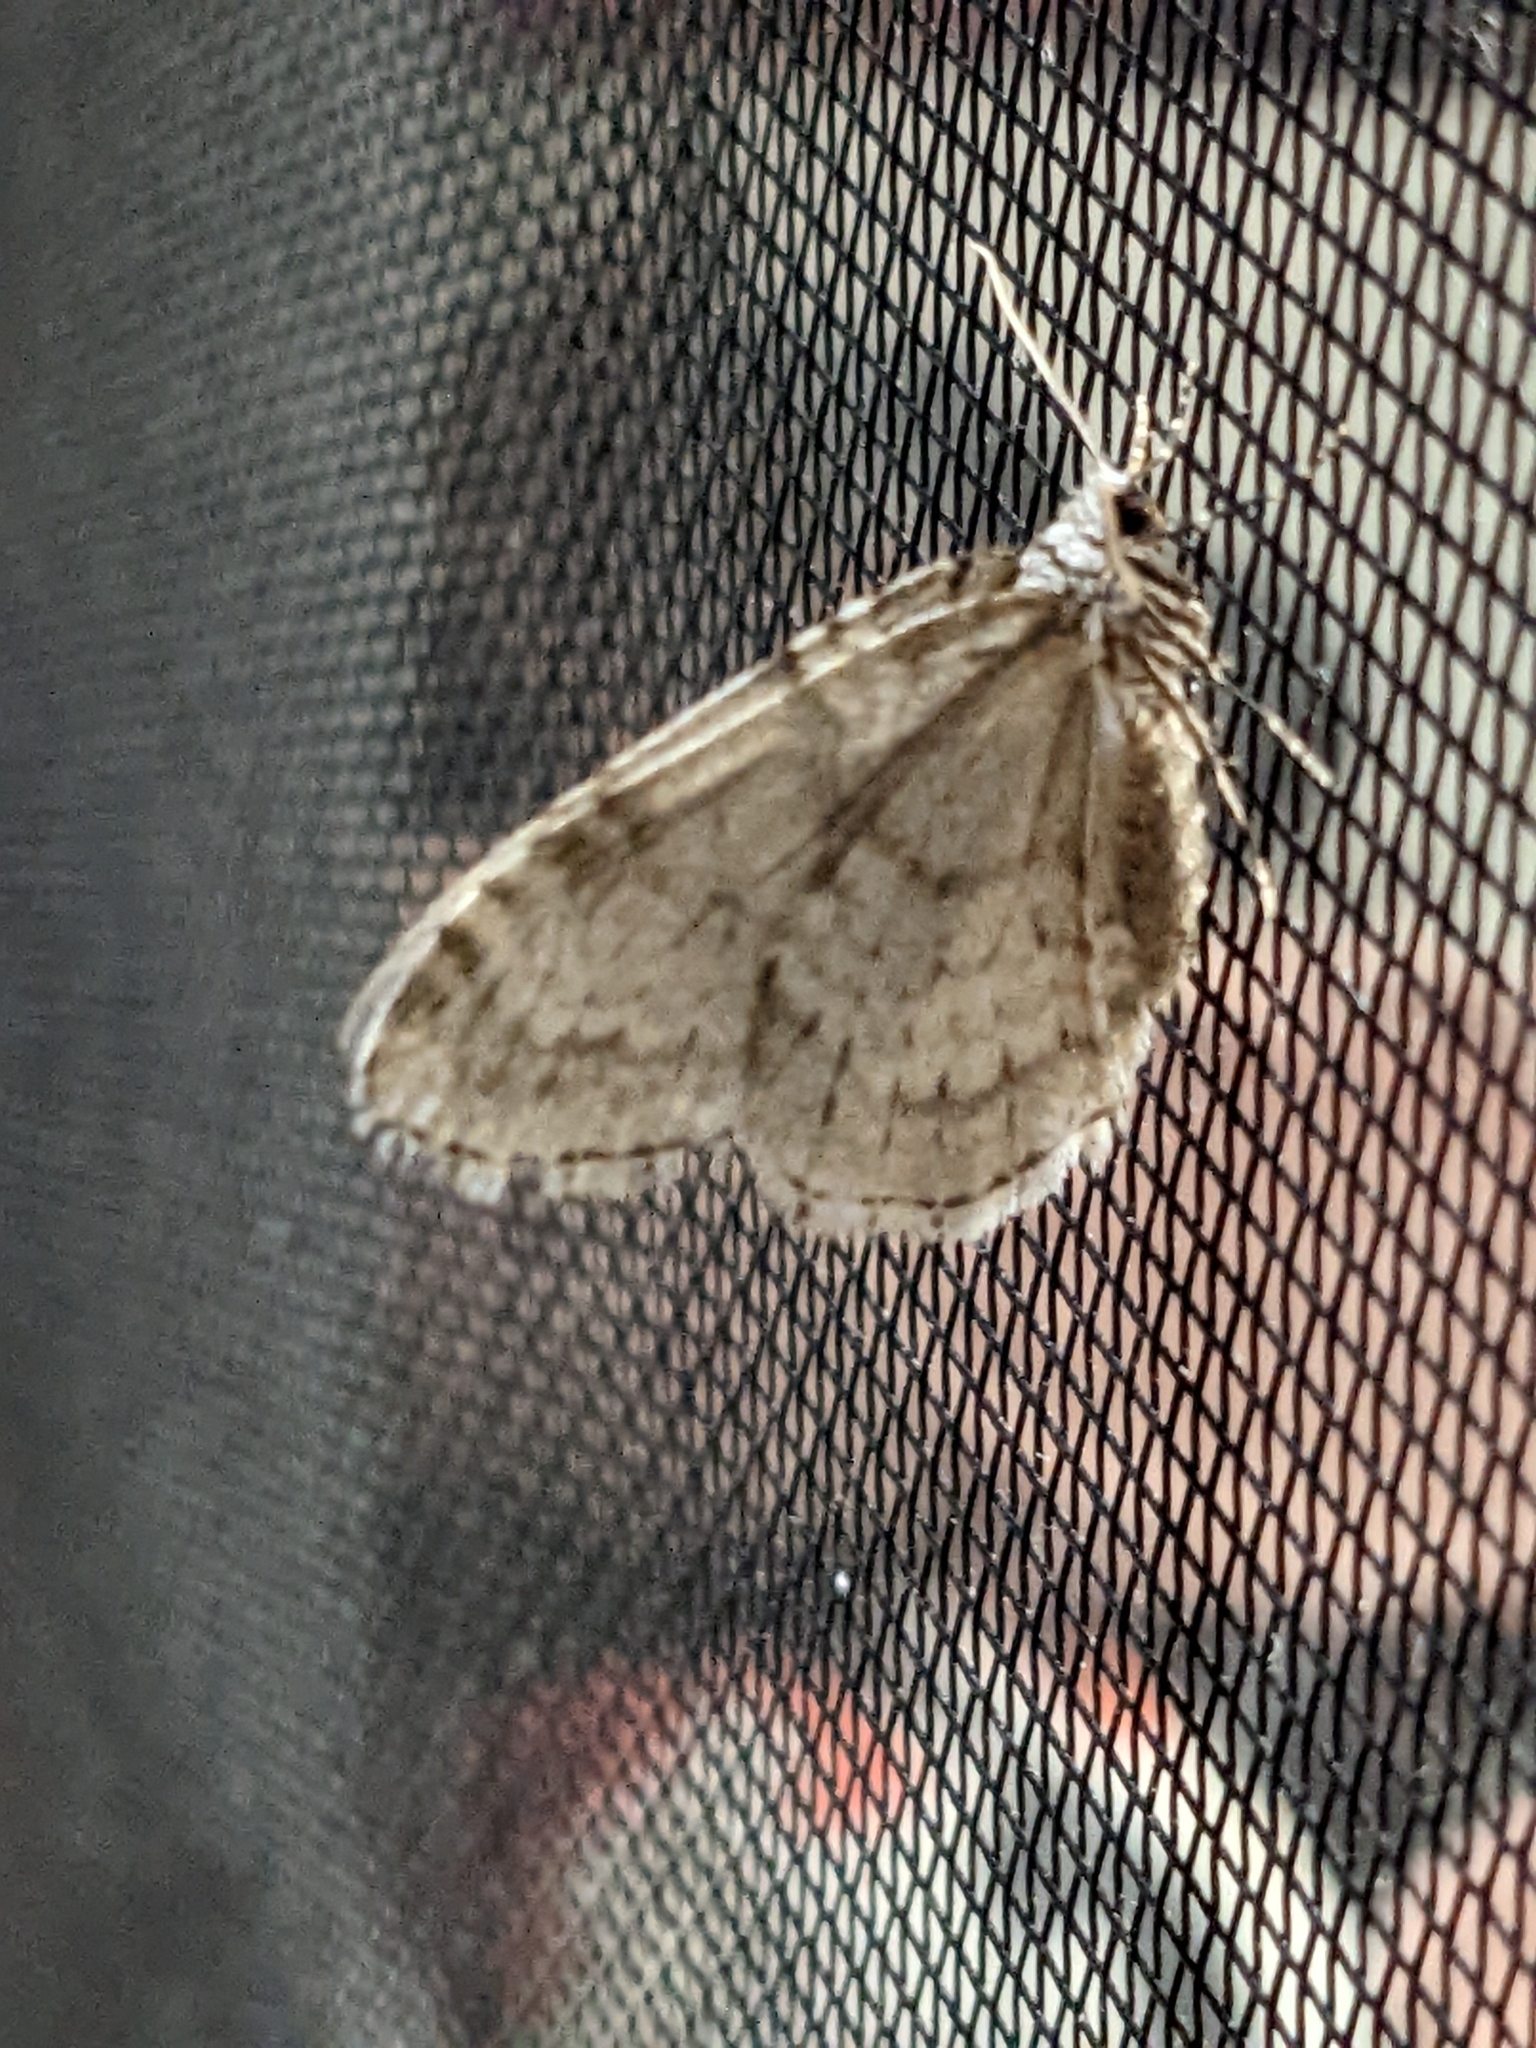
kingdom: Animalia
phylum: Arthropoda
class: Insecta
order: Lepidoptera
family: Geometridae
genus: Epirrita
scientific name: Epirrita autumnata
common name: Autumnal moth
